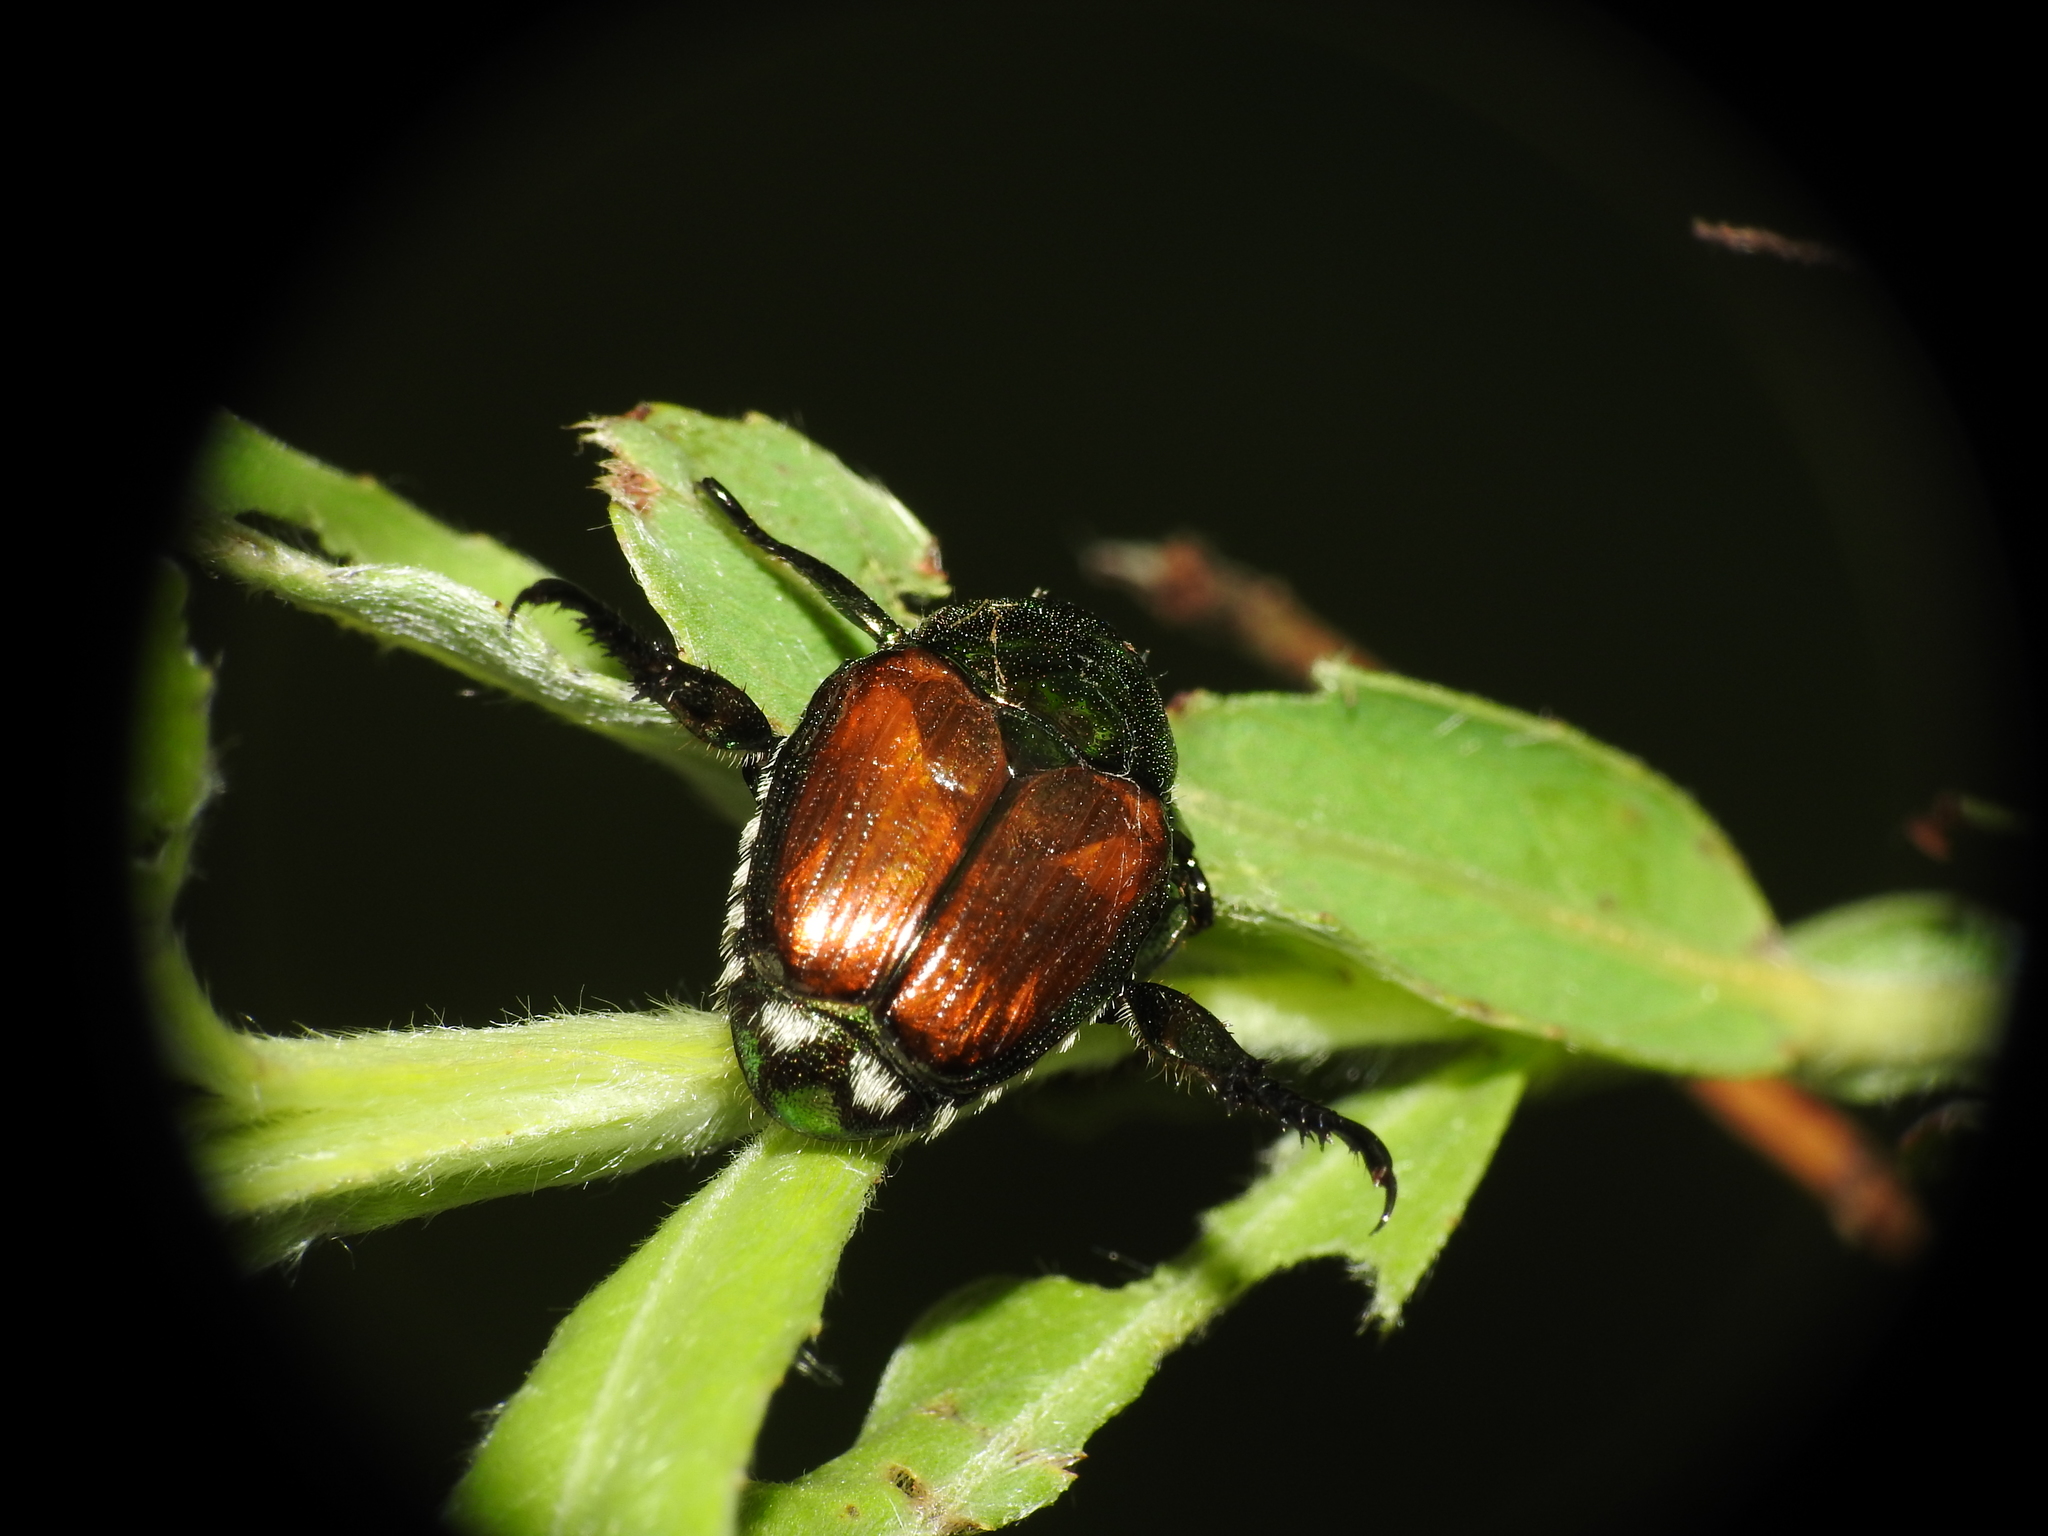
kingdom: Animalia
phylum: Arthropoda
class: Insecta
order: Coleoptera
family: Scarabaeidae
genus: Popillia
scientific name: Popillia japonica
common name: Japanese beetle
